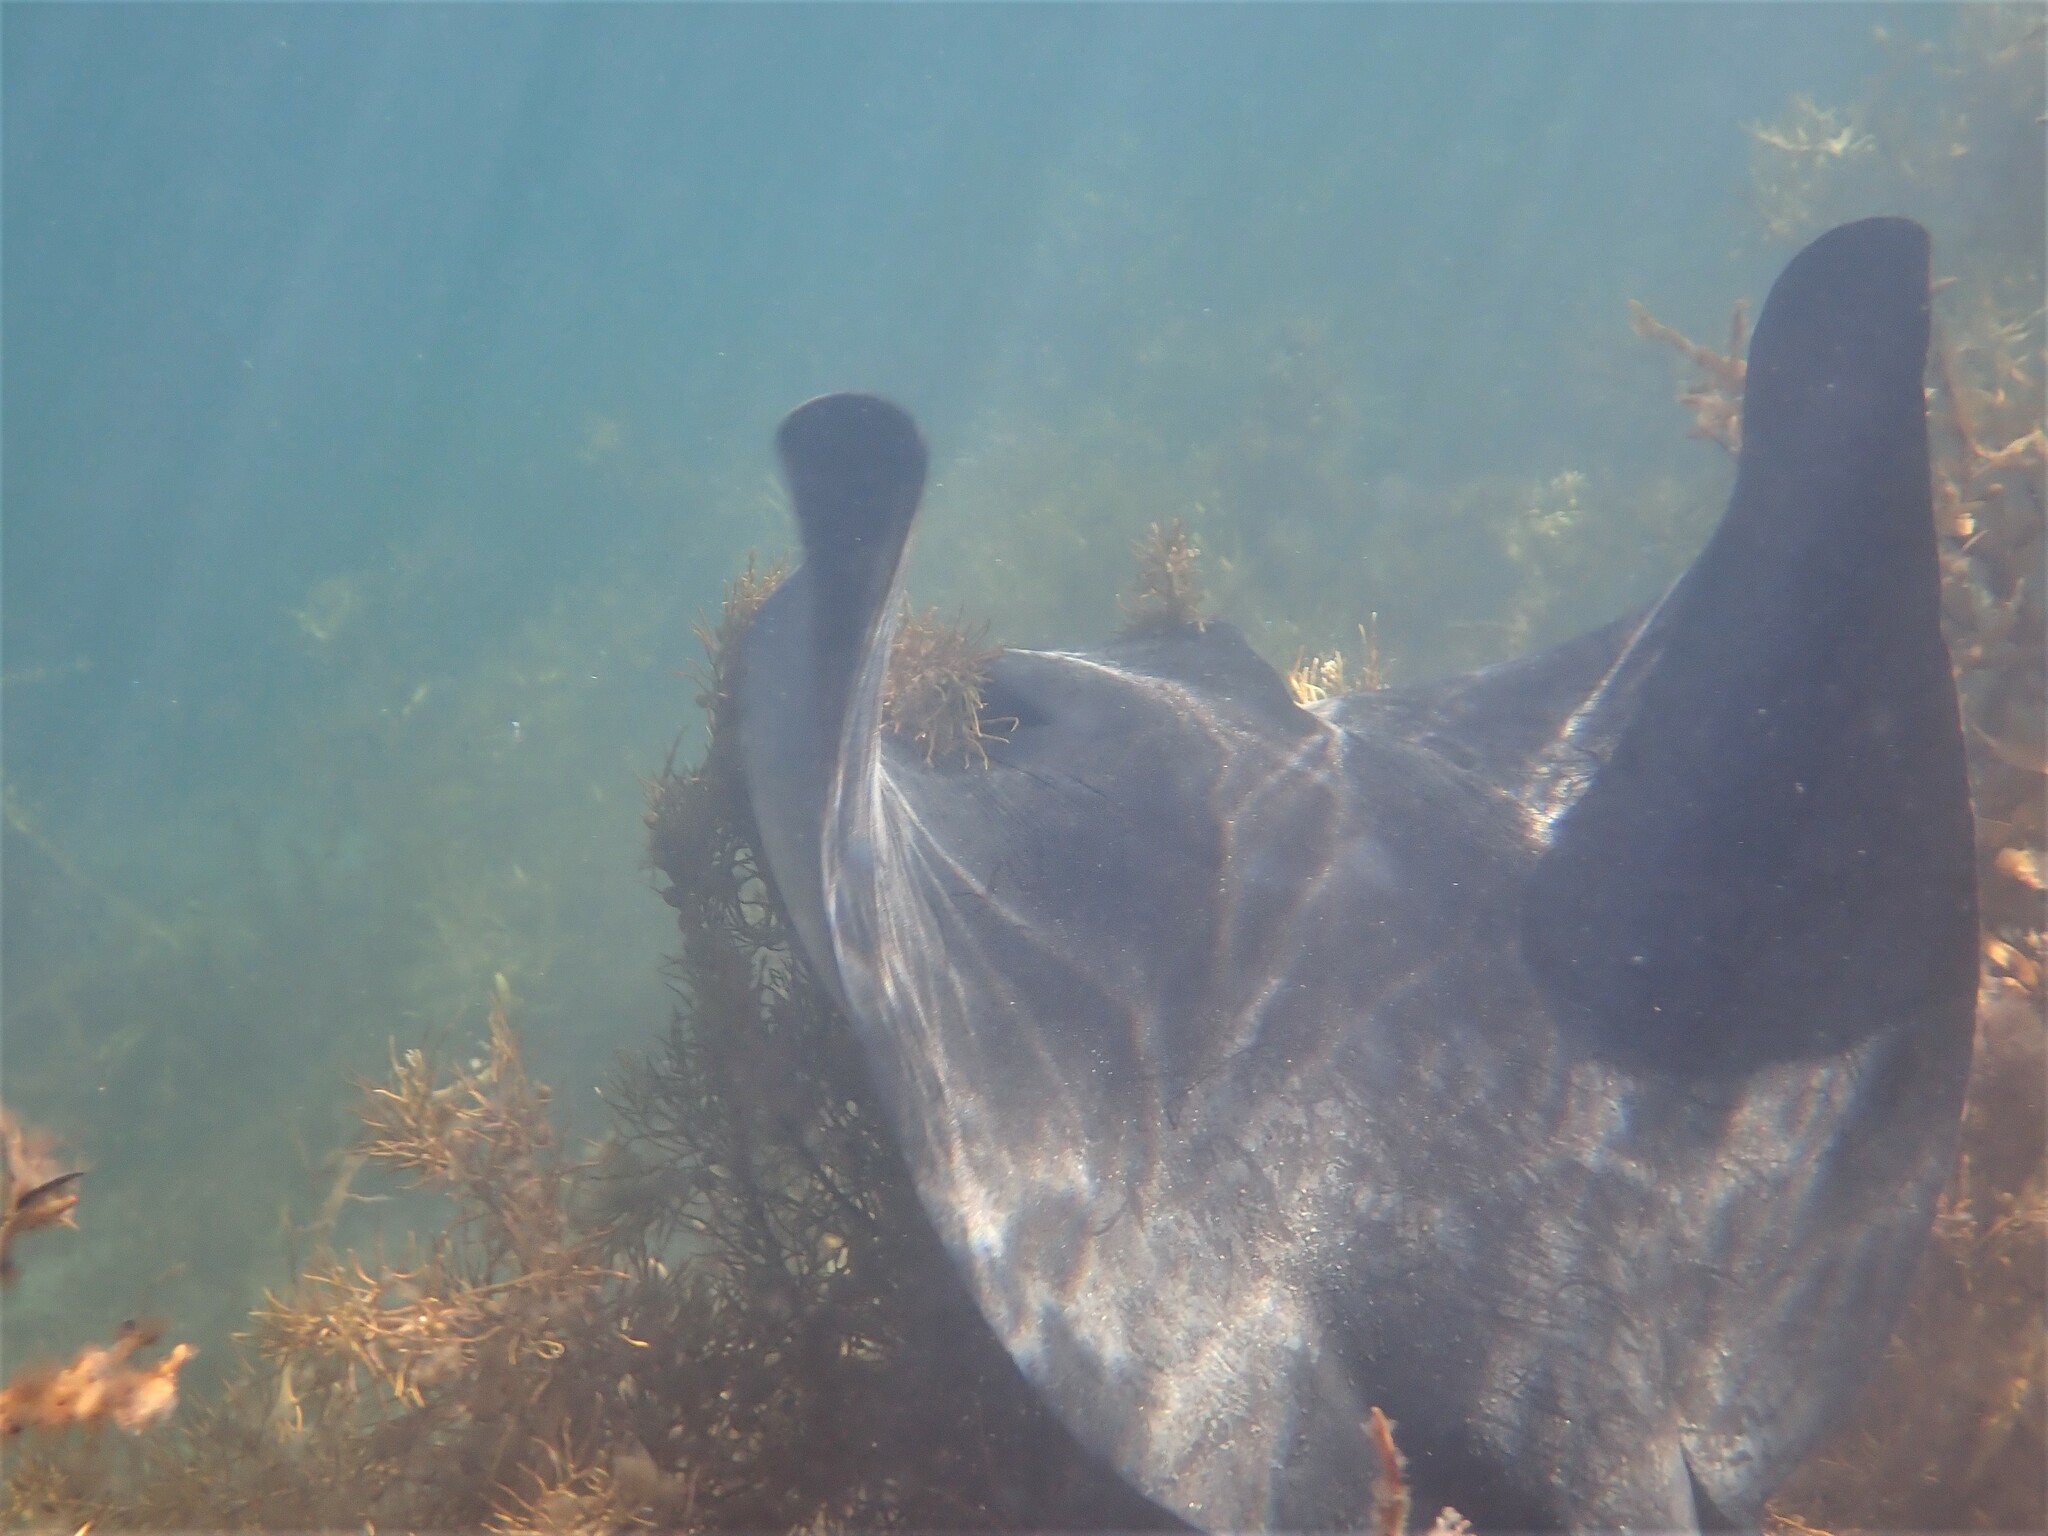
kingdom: Animalia
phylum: Chordata
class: Elasmobranchii
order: Myliobatiformes
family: Myliobatidae
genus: Myliobatis
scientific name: Myliobatis tenuicaudatus
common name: Eagle ray
